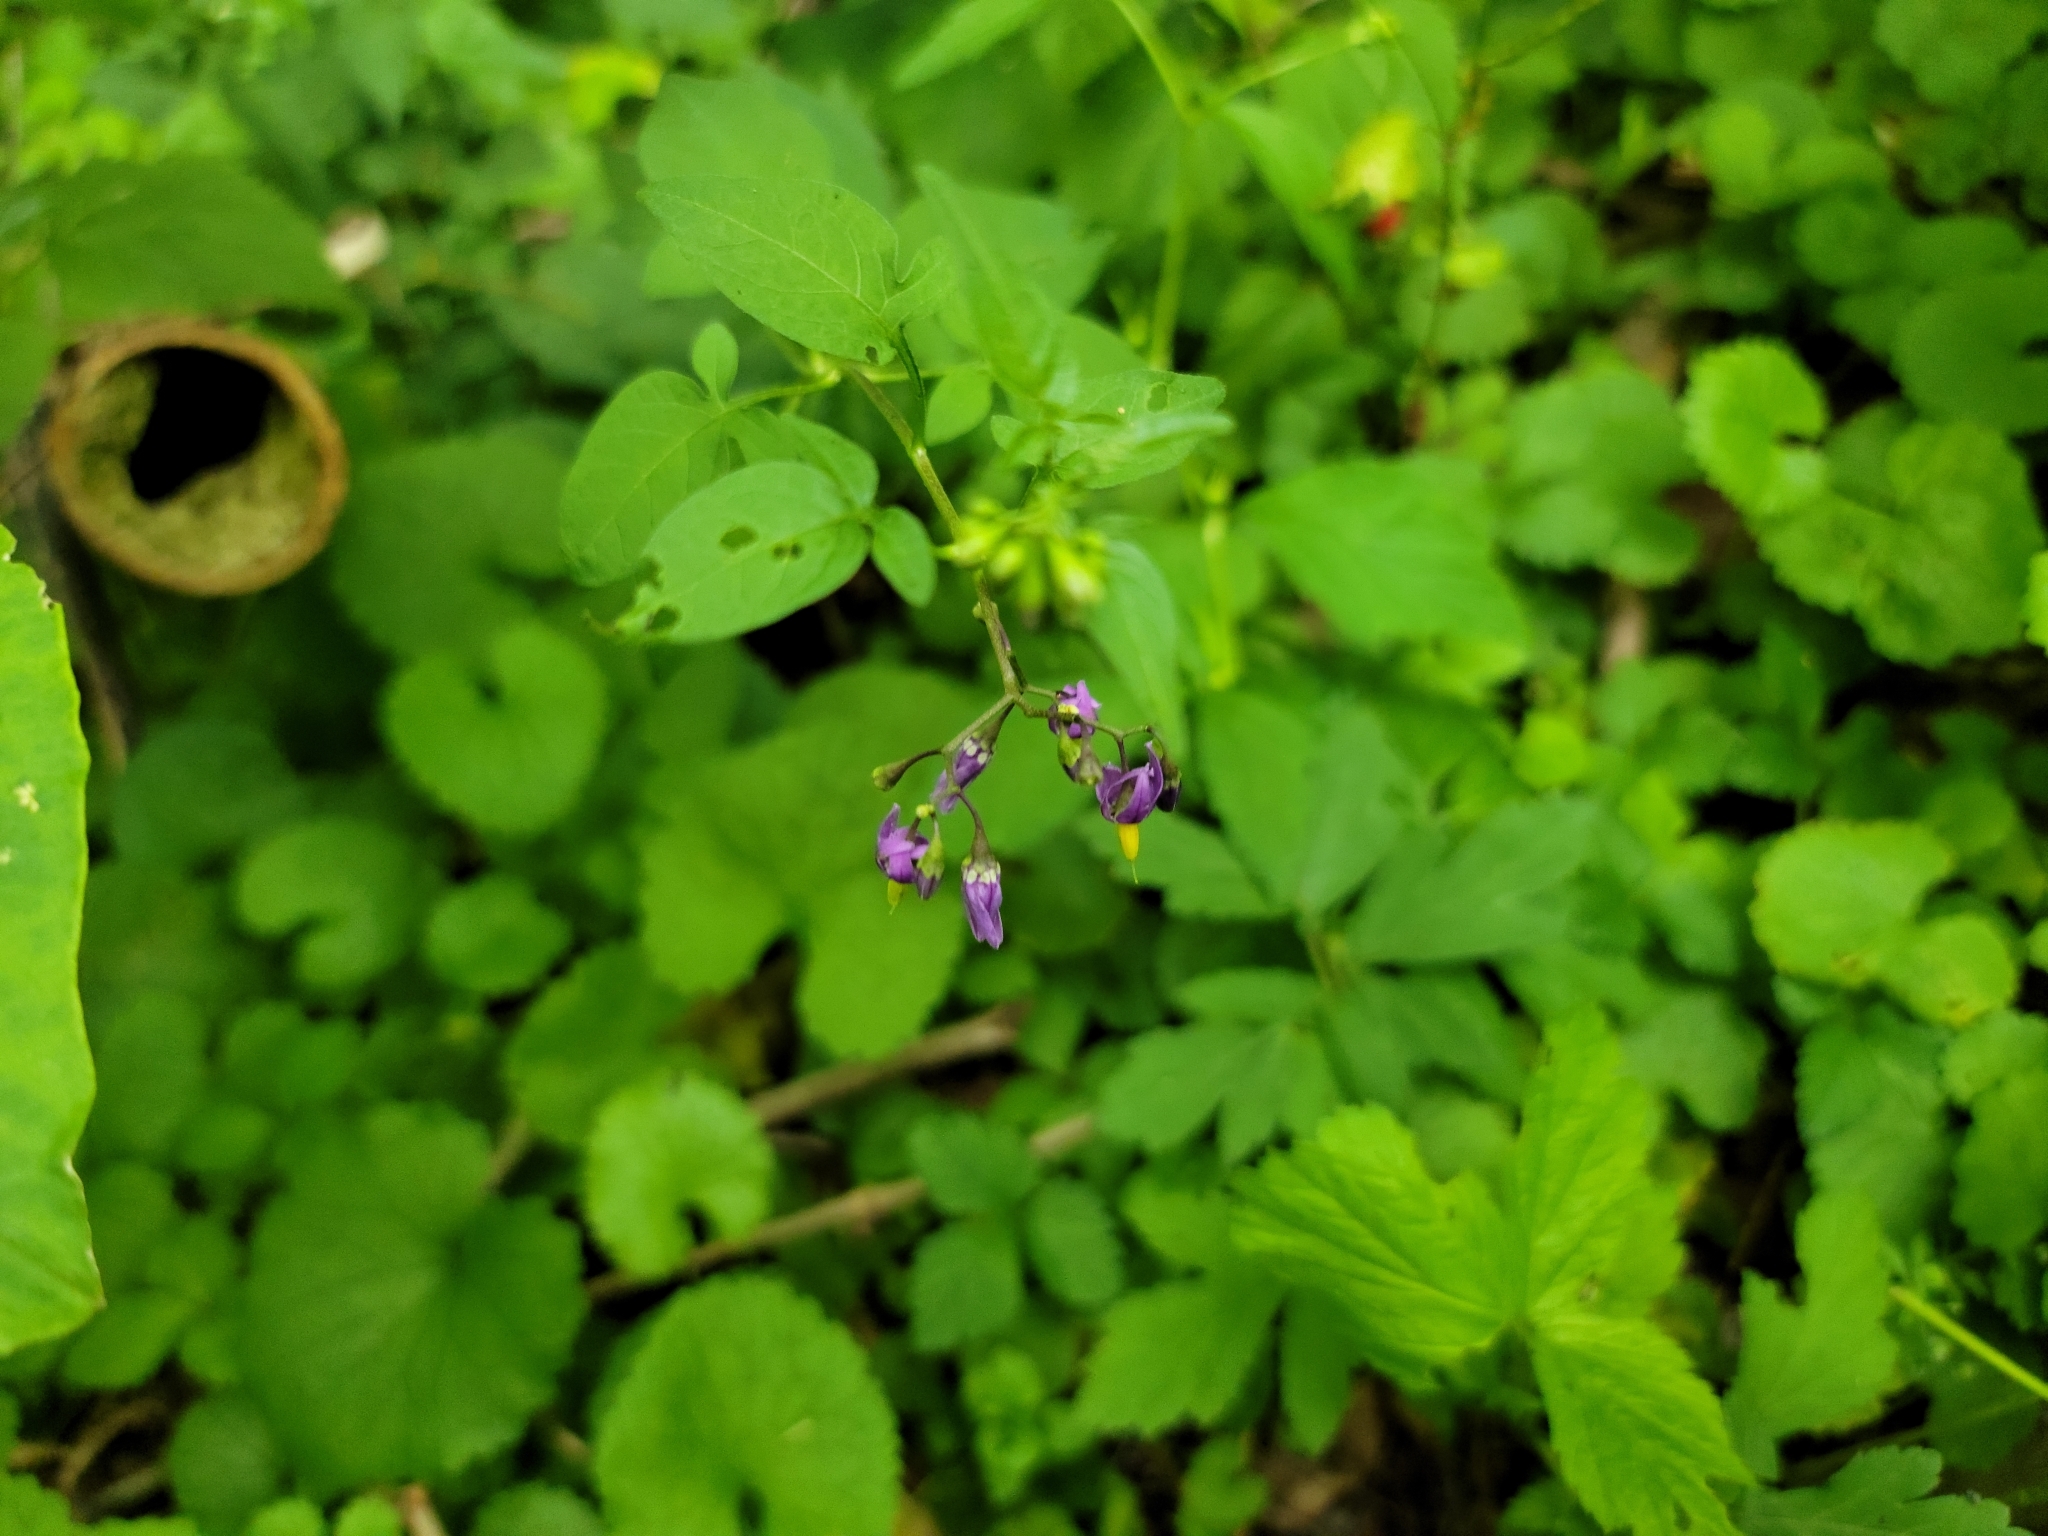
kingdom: Plantae
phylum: Tracheophyta
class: Magnoliopsida
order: Solanales
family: Solanaceae
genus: Solanum
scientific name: Solanum dulcamara
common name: Climbing nightshade
